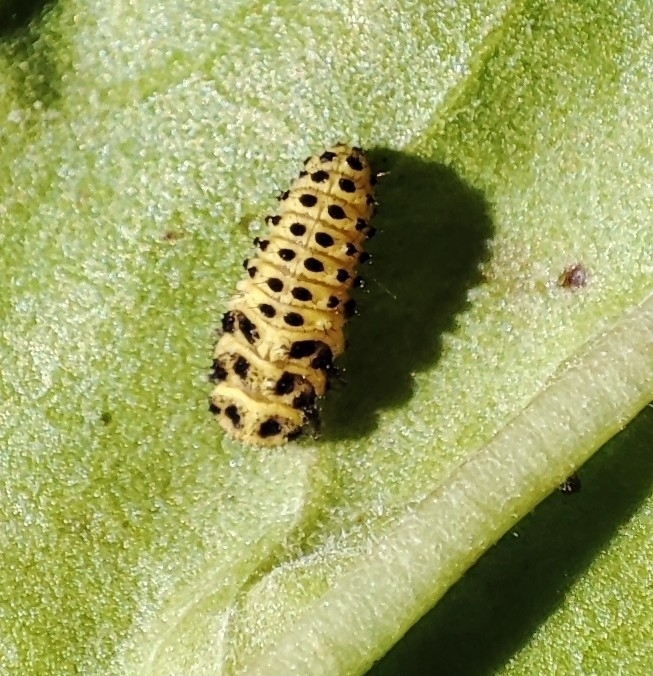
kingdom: Animalia
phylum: Arthropoda
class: Insecta
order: Coleoptera
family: Coccinellidae
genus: Psyllobora
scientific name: Psyllobora vigintiduopunctata
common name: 22-spot ladybird
